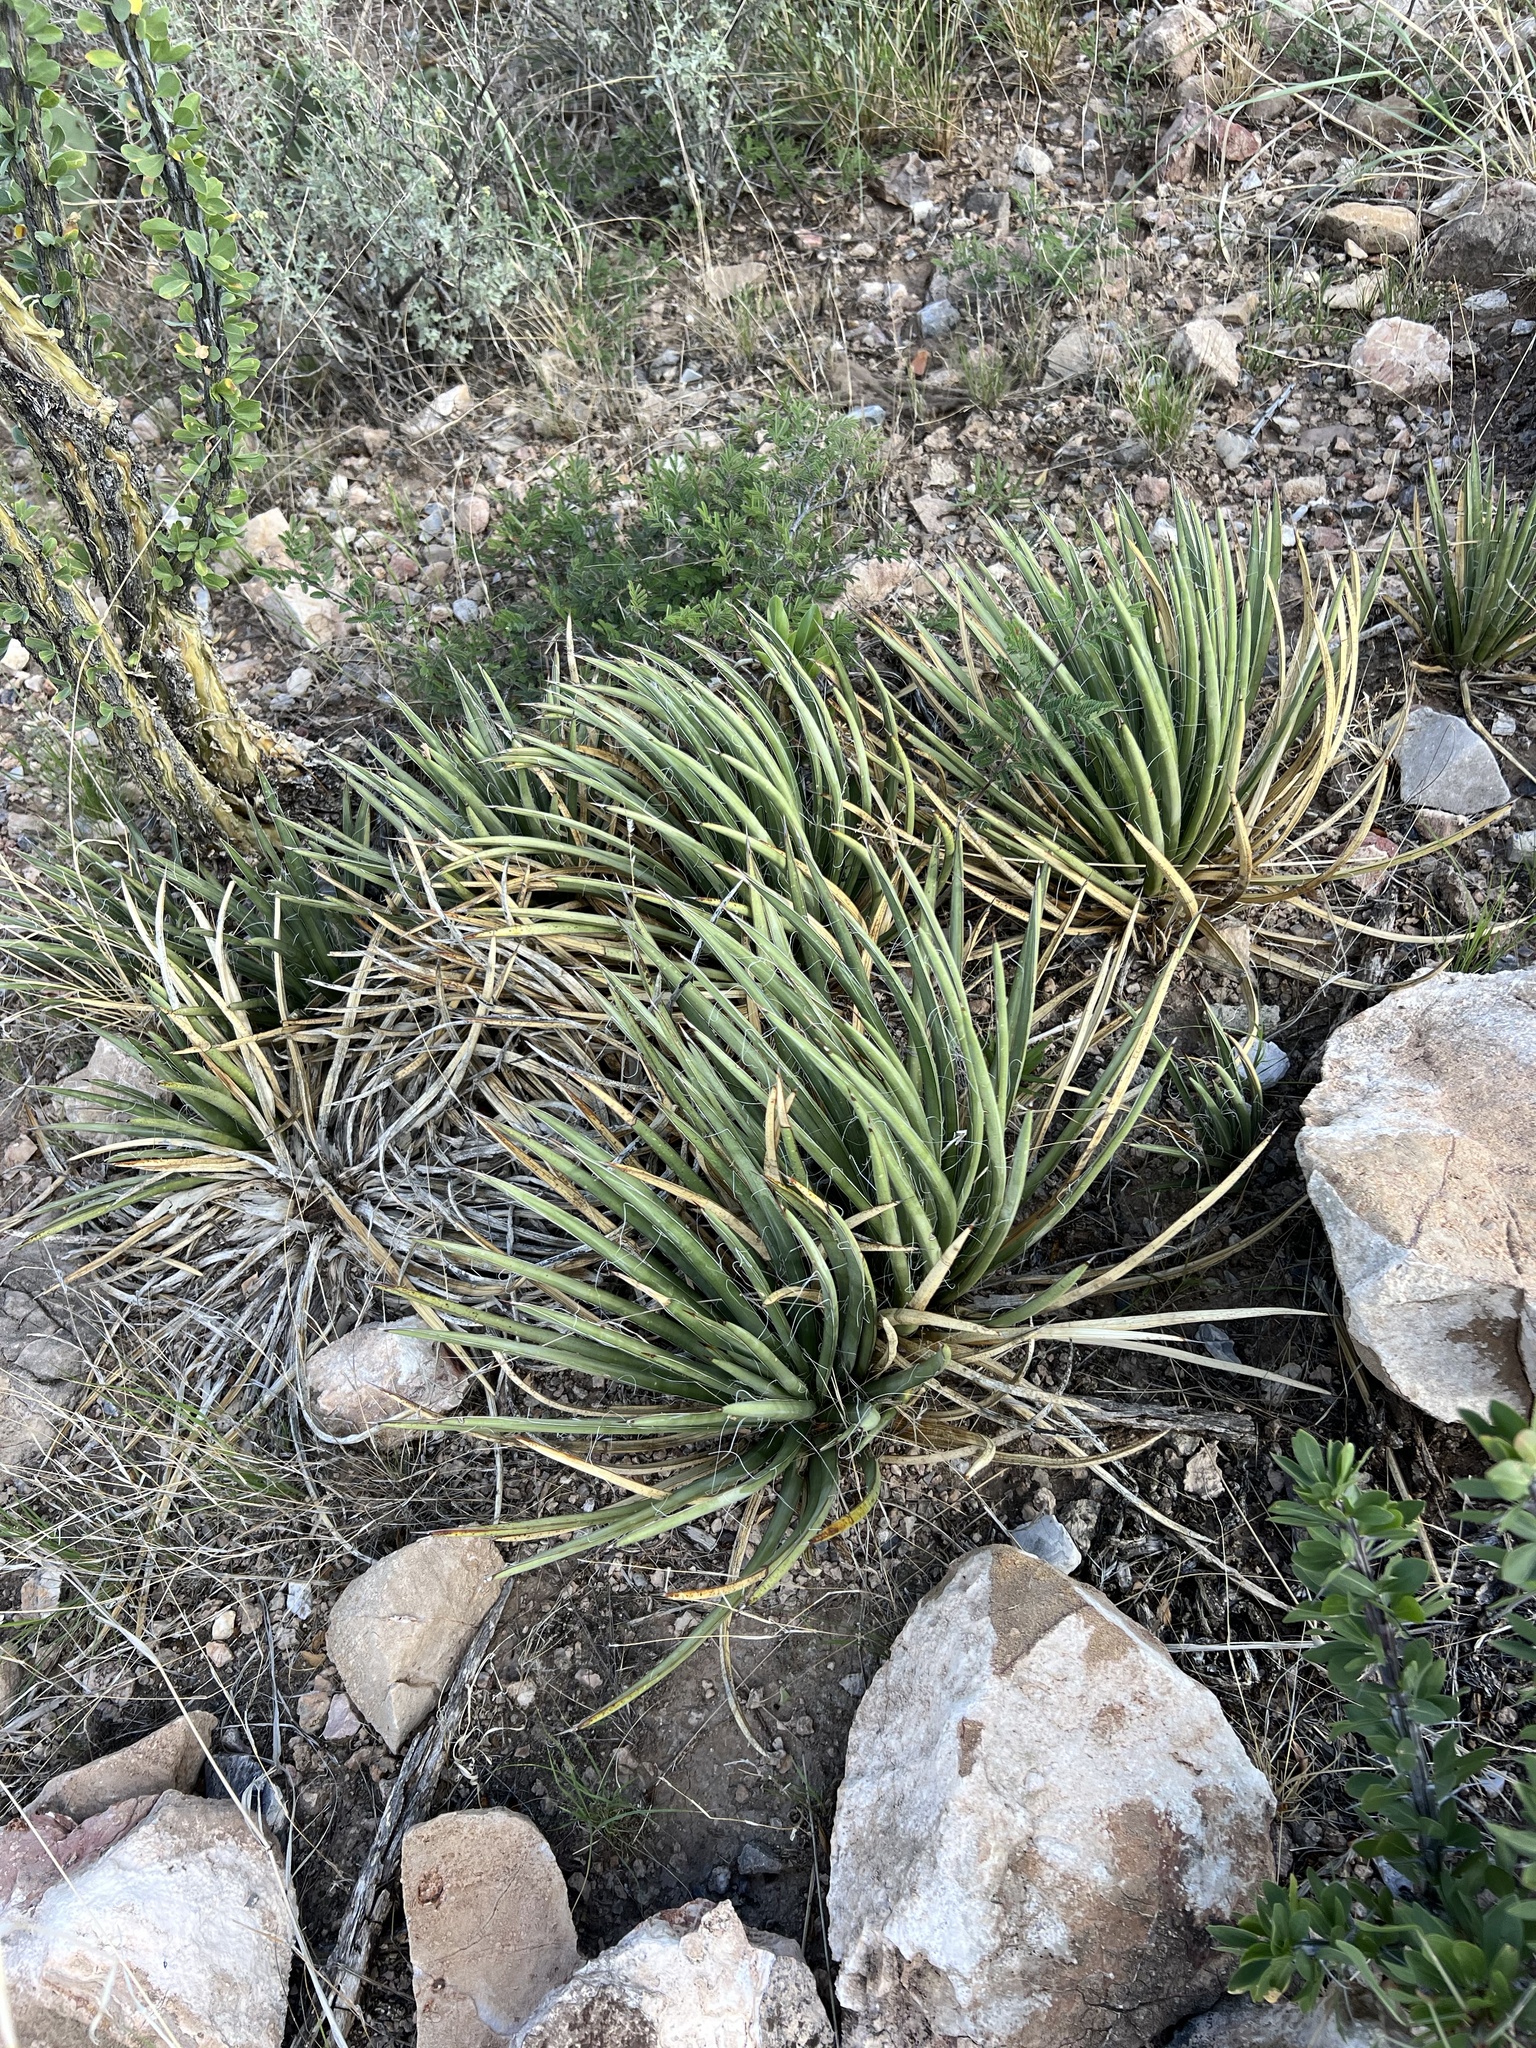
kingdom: Plantae
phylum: Tracheophyta
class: Liliopsida
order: Asparagales
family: Asparagaceae
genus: Agave
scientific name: Agave schottii
